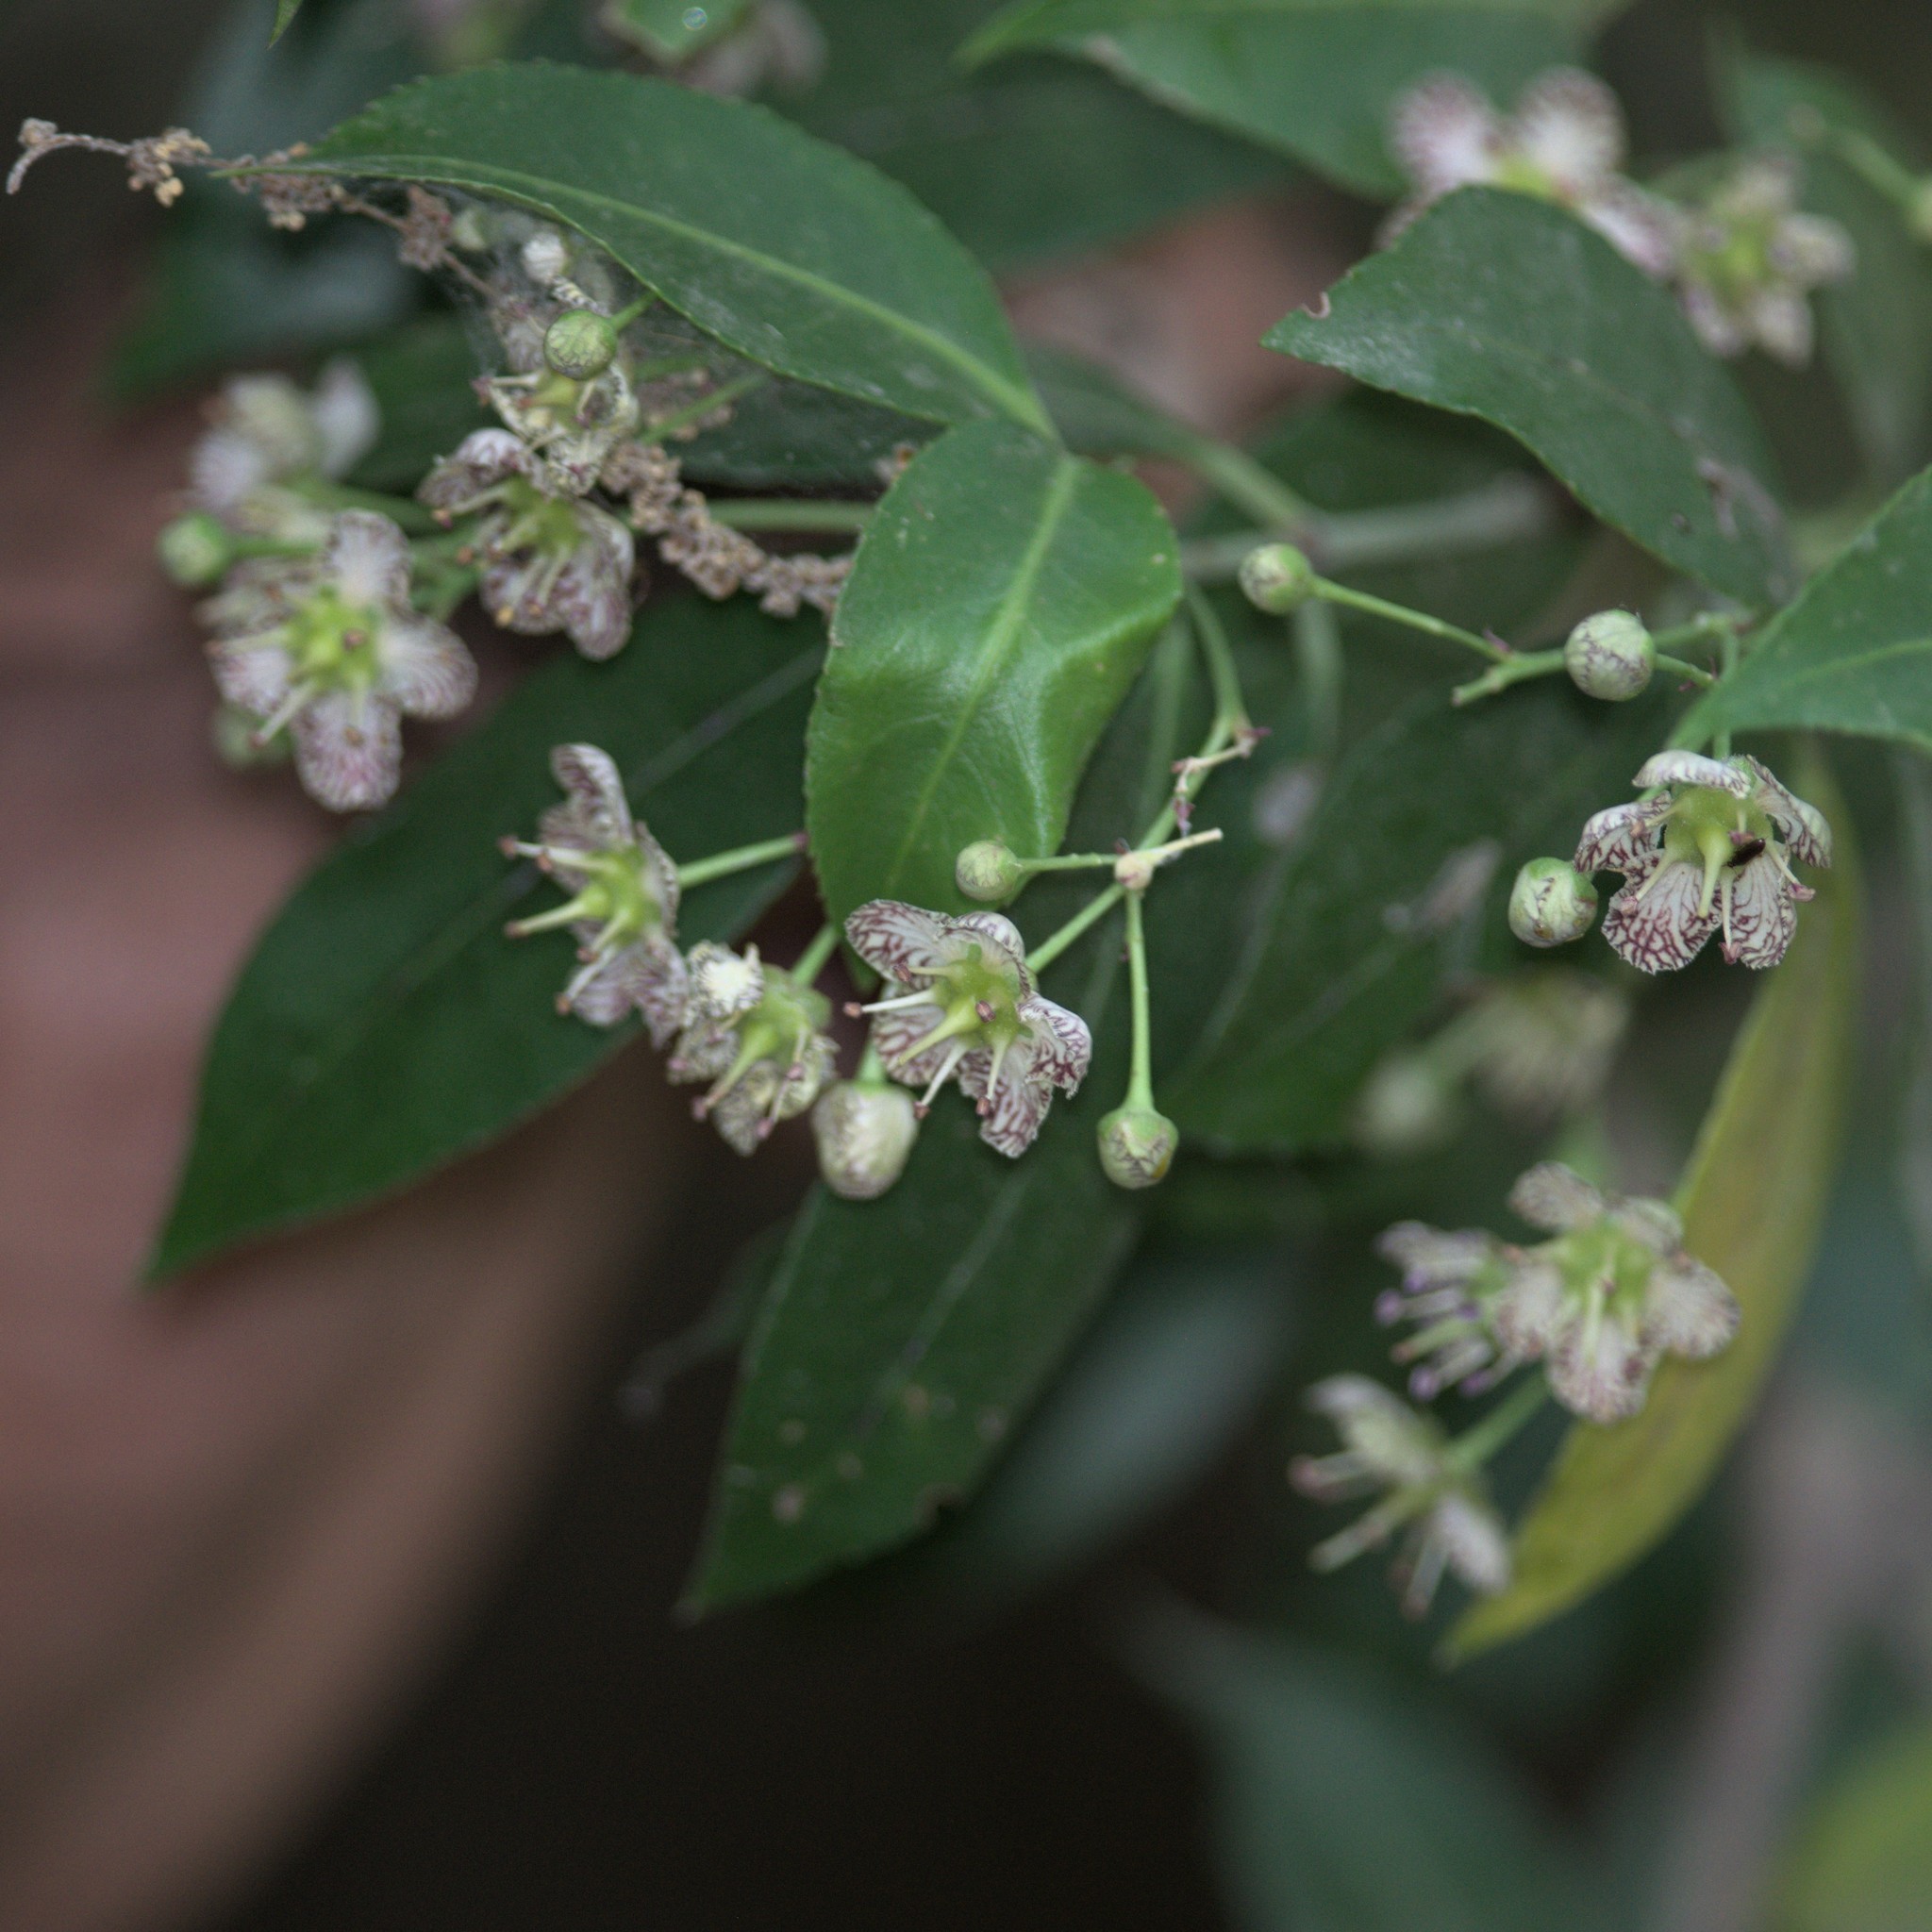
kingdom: Plantae
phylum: Tracheophyta
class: Magnoliopsida
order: Celastrales
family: Celastraceae
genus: Euonymus
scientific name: Euonymus tingens
